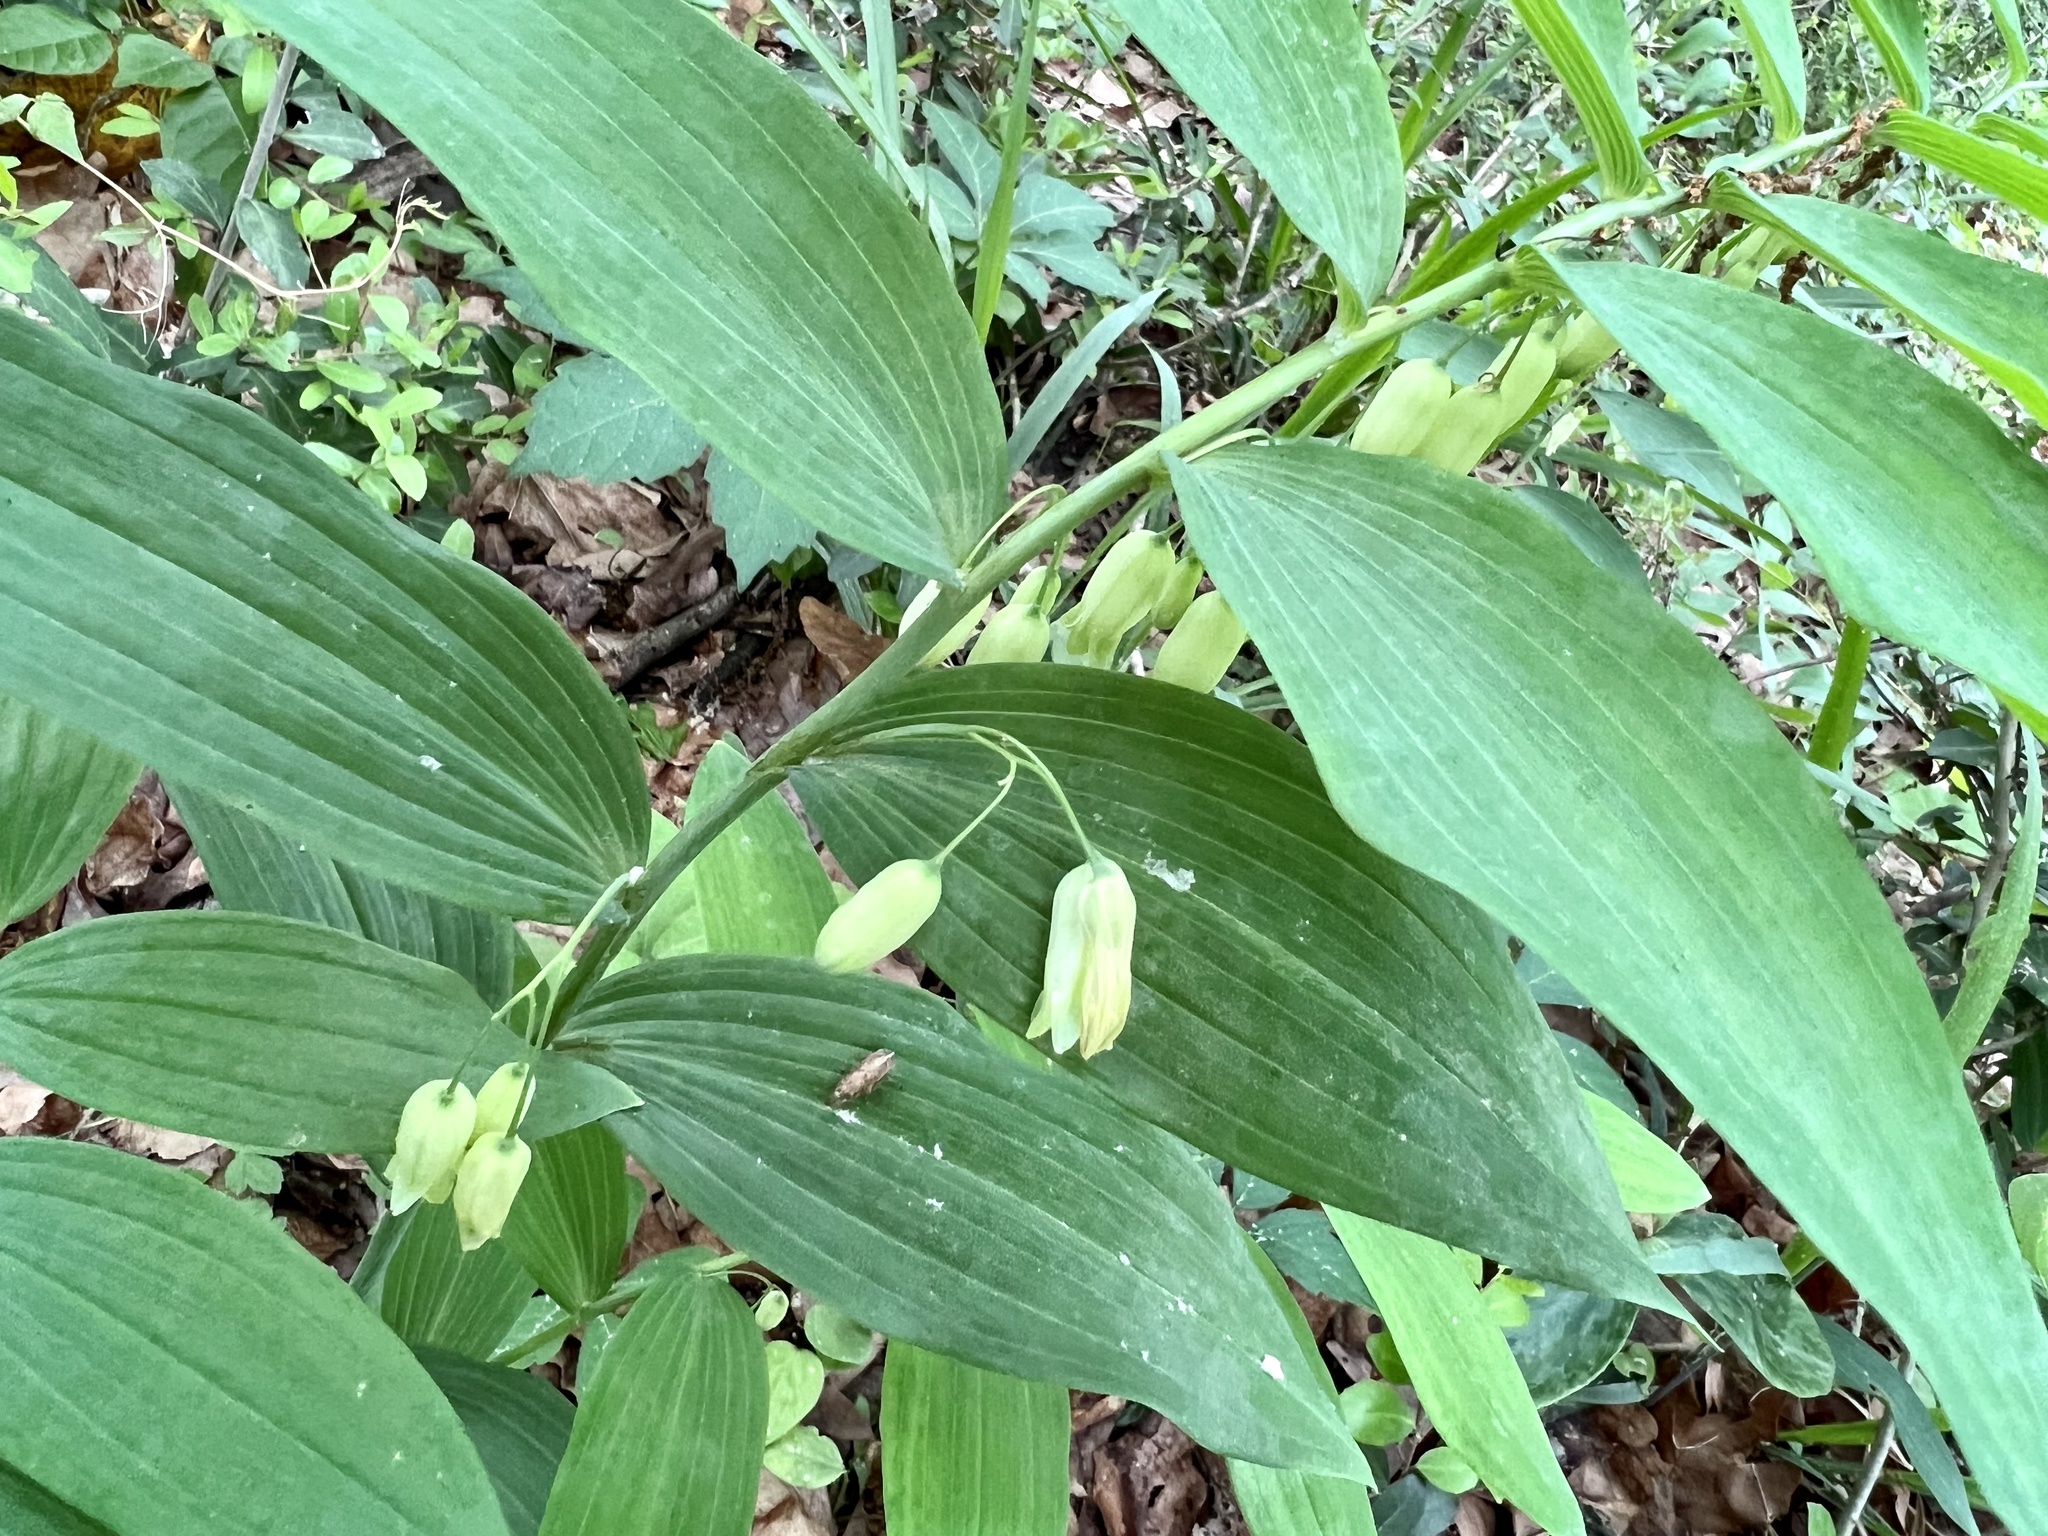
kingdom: Plantae
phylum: Tracheophyta
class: Liliopsida
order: Asparagales
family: Asparagaceae
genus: Polygonatum
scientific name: Polygonatum biflorum
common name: American solomon's-seal
